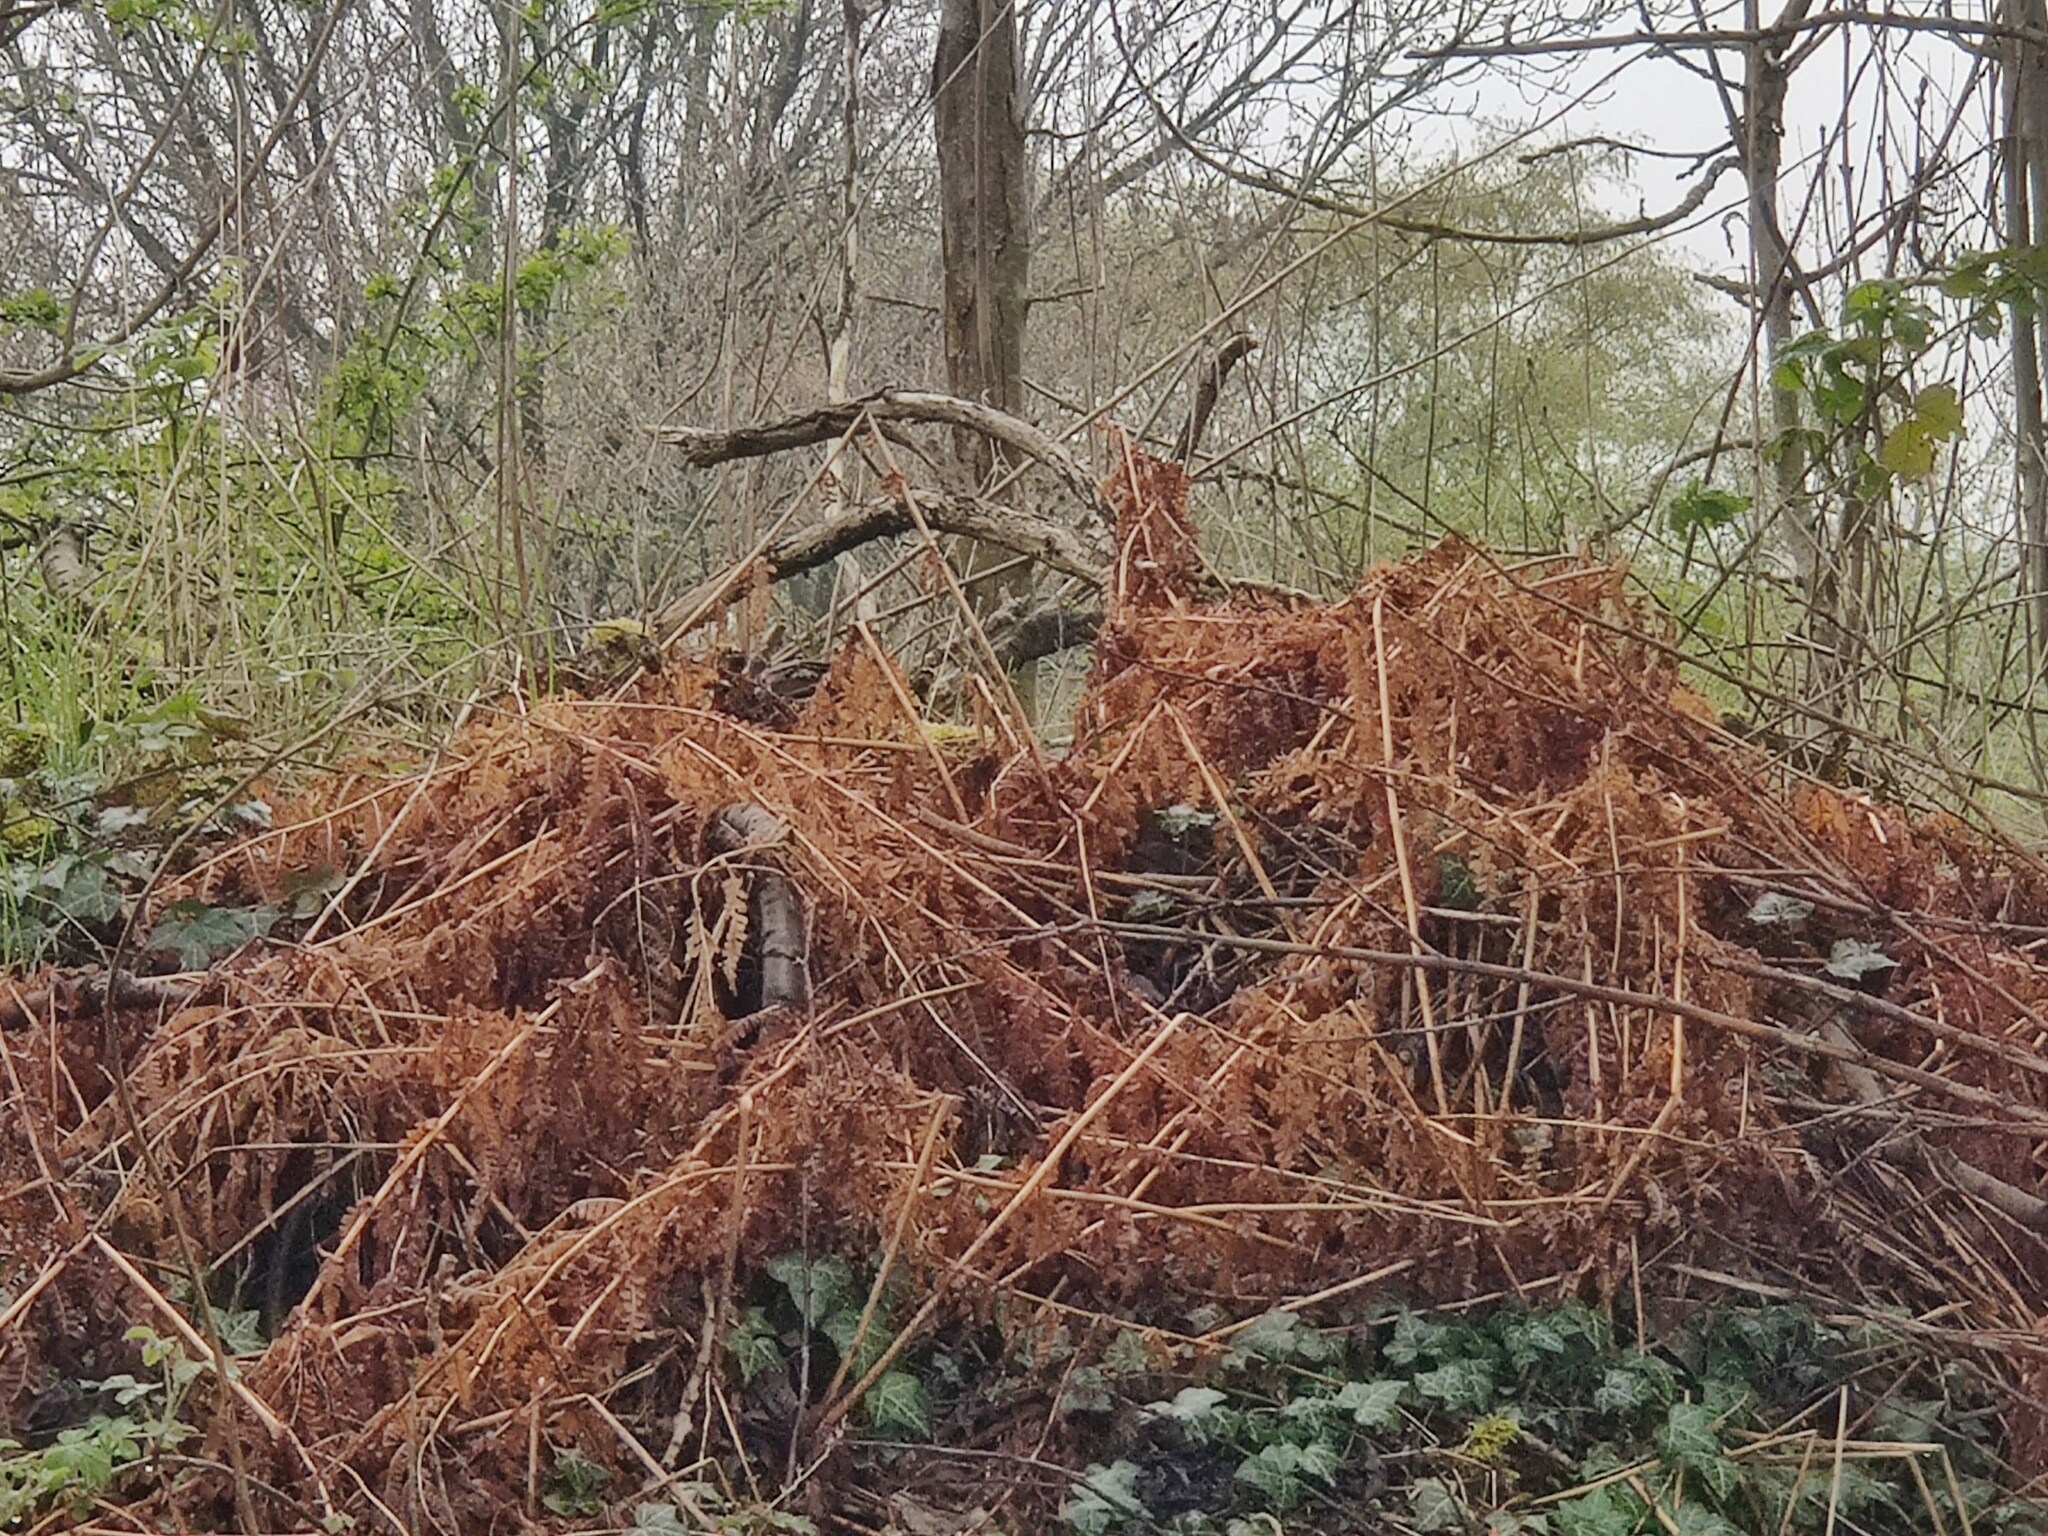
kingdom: Plantae
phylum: Tracheophyta
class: Polypodiopsida
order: Polypodiales
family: Dennstaedtiaceae
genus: Pteridium
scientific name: Pteridium aquilinum
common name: Bracken
